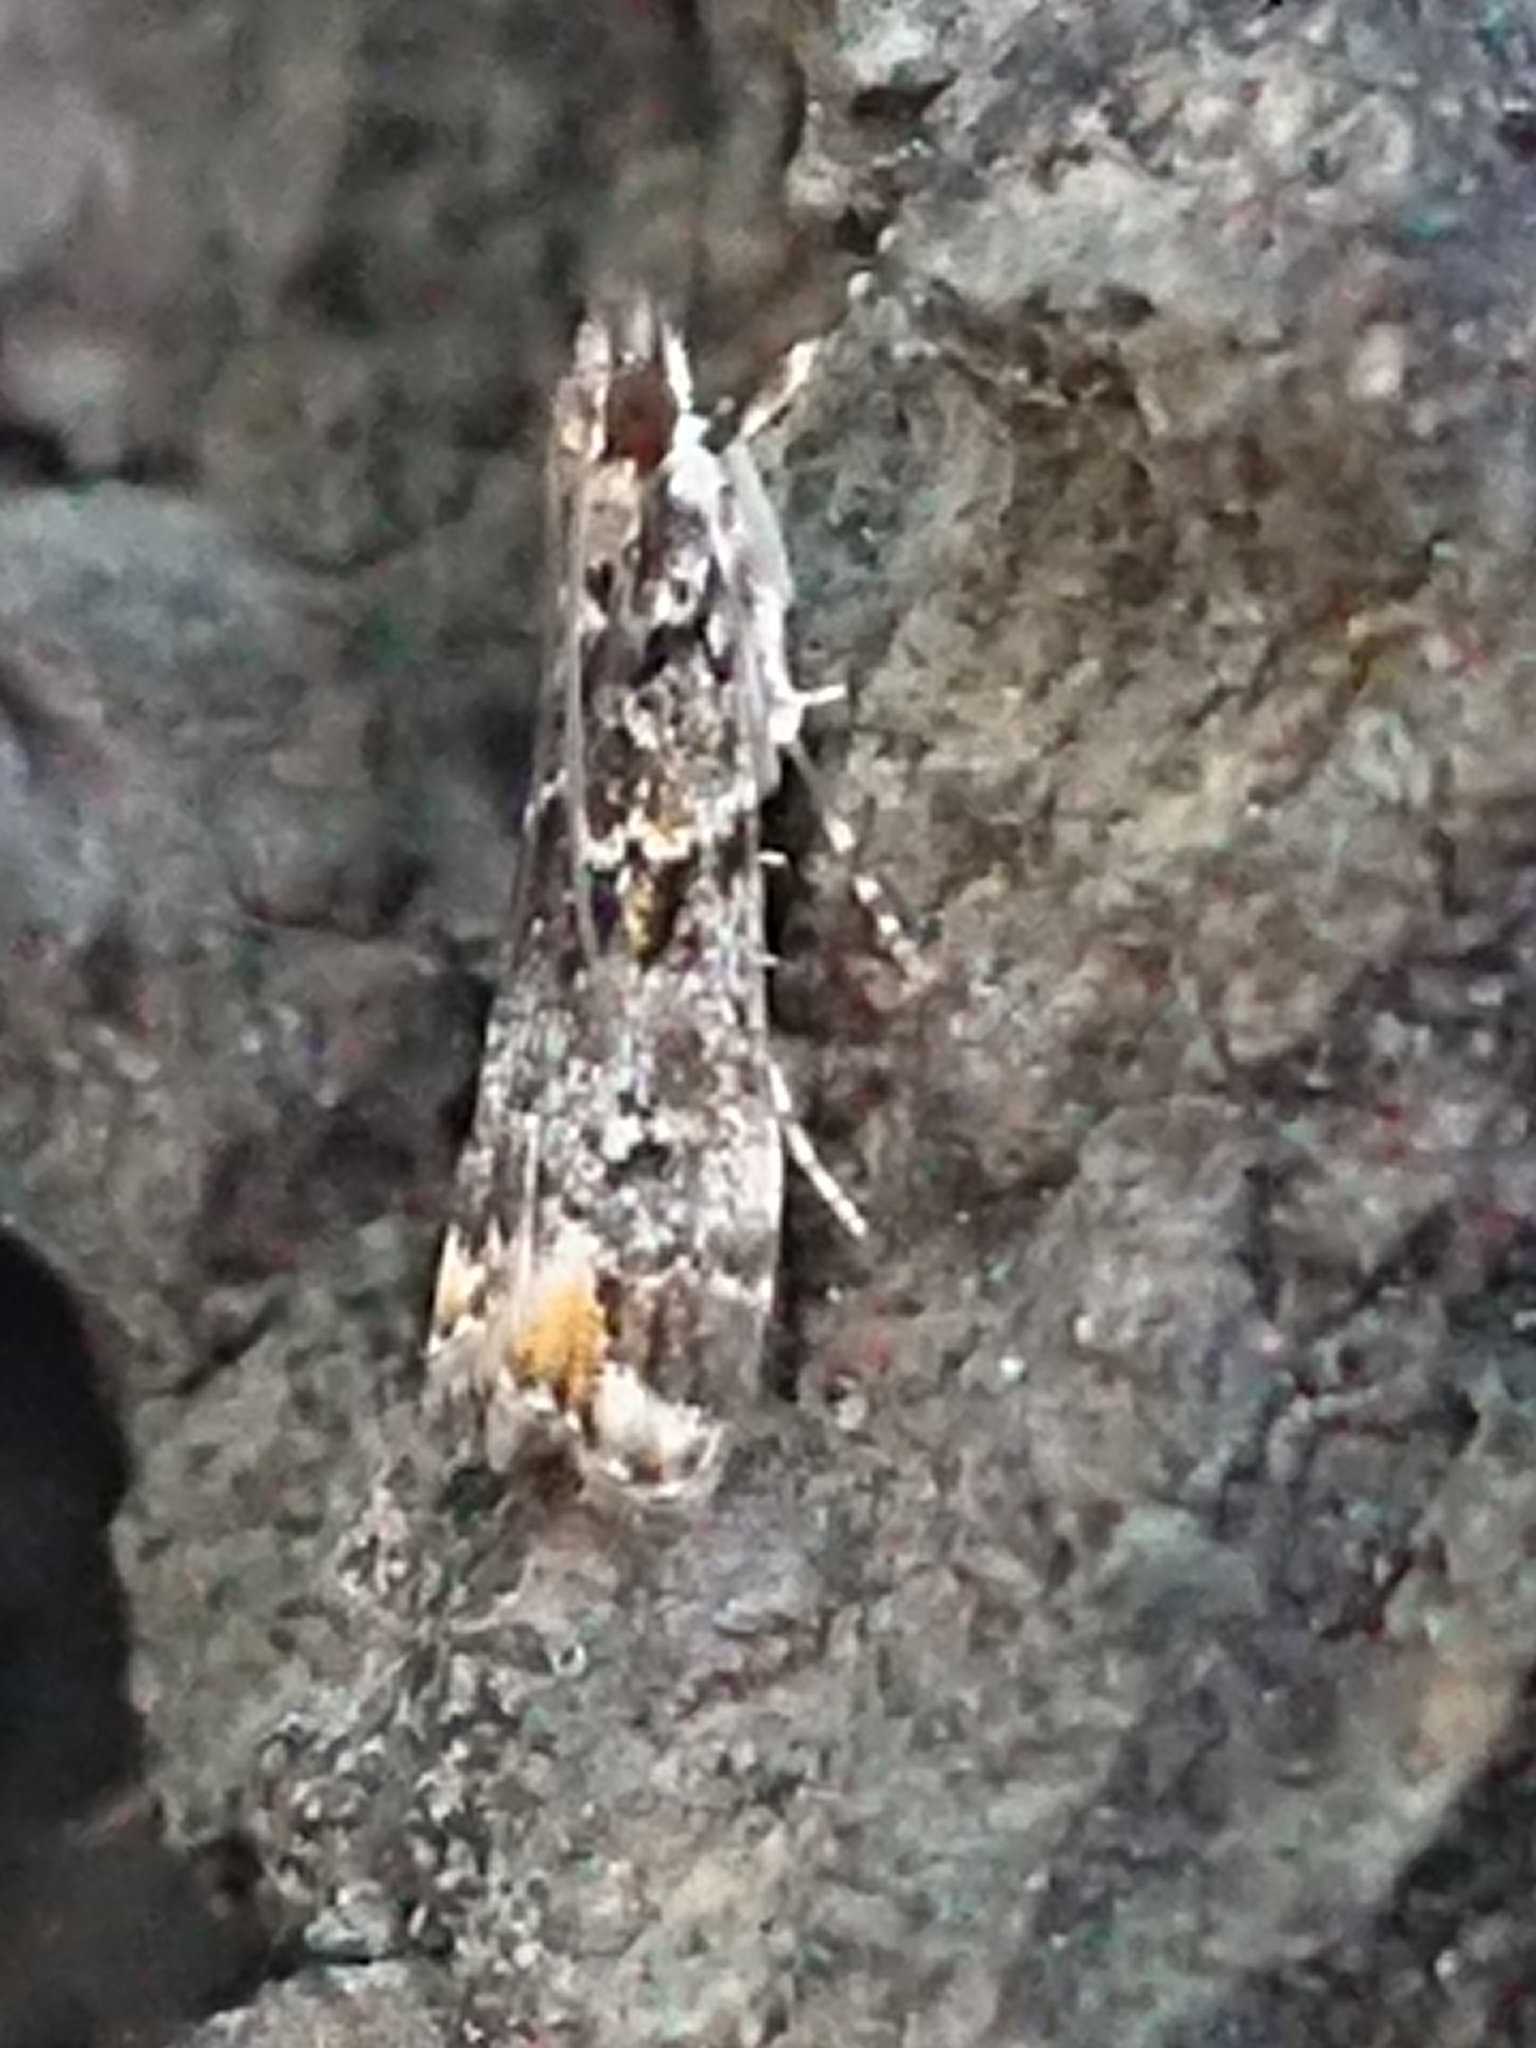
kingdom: Animalia
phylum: Arthropoda
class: Insecta
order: Lepidoptera
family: Crambidae
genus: Eudonia
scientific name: Eudonia minualis
